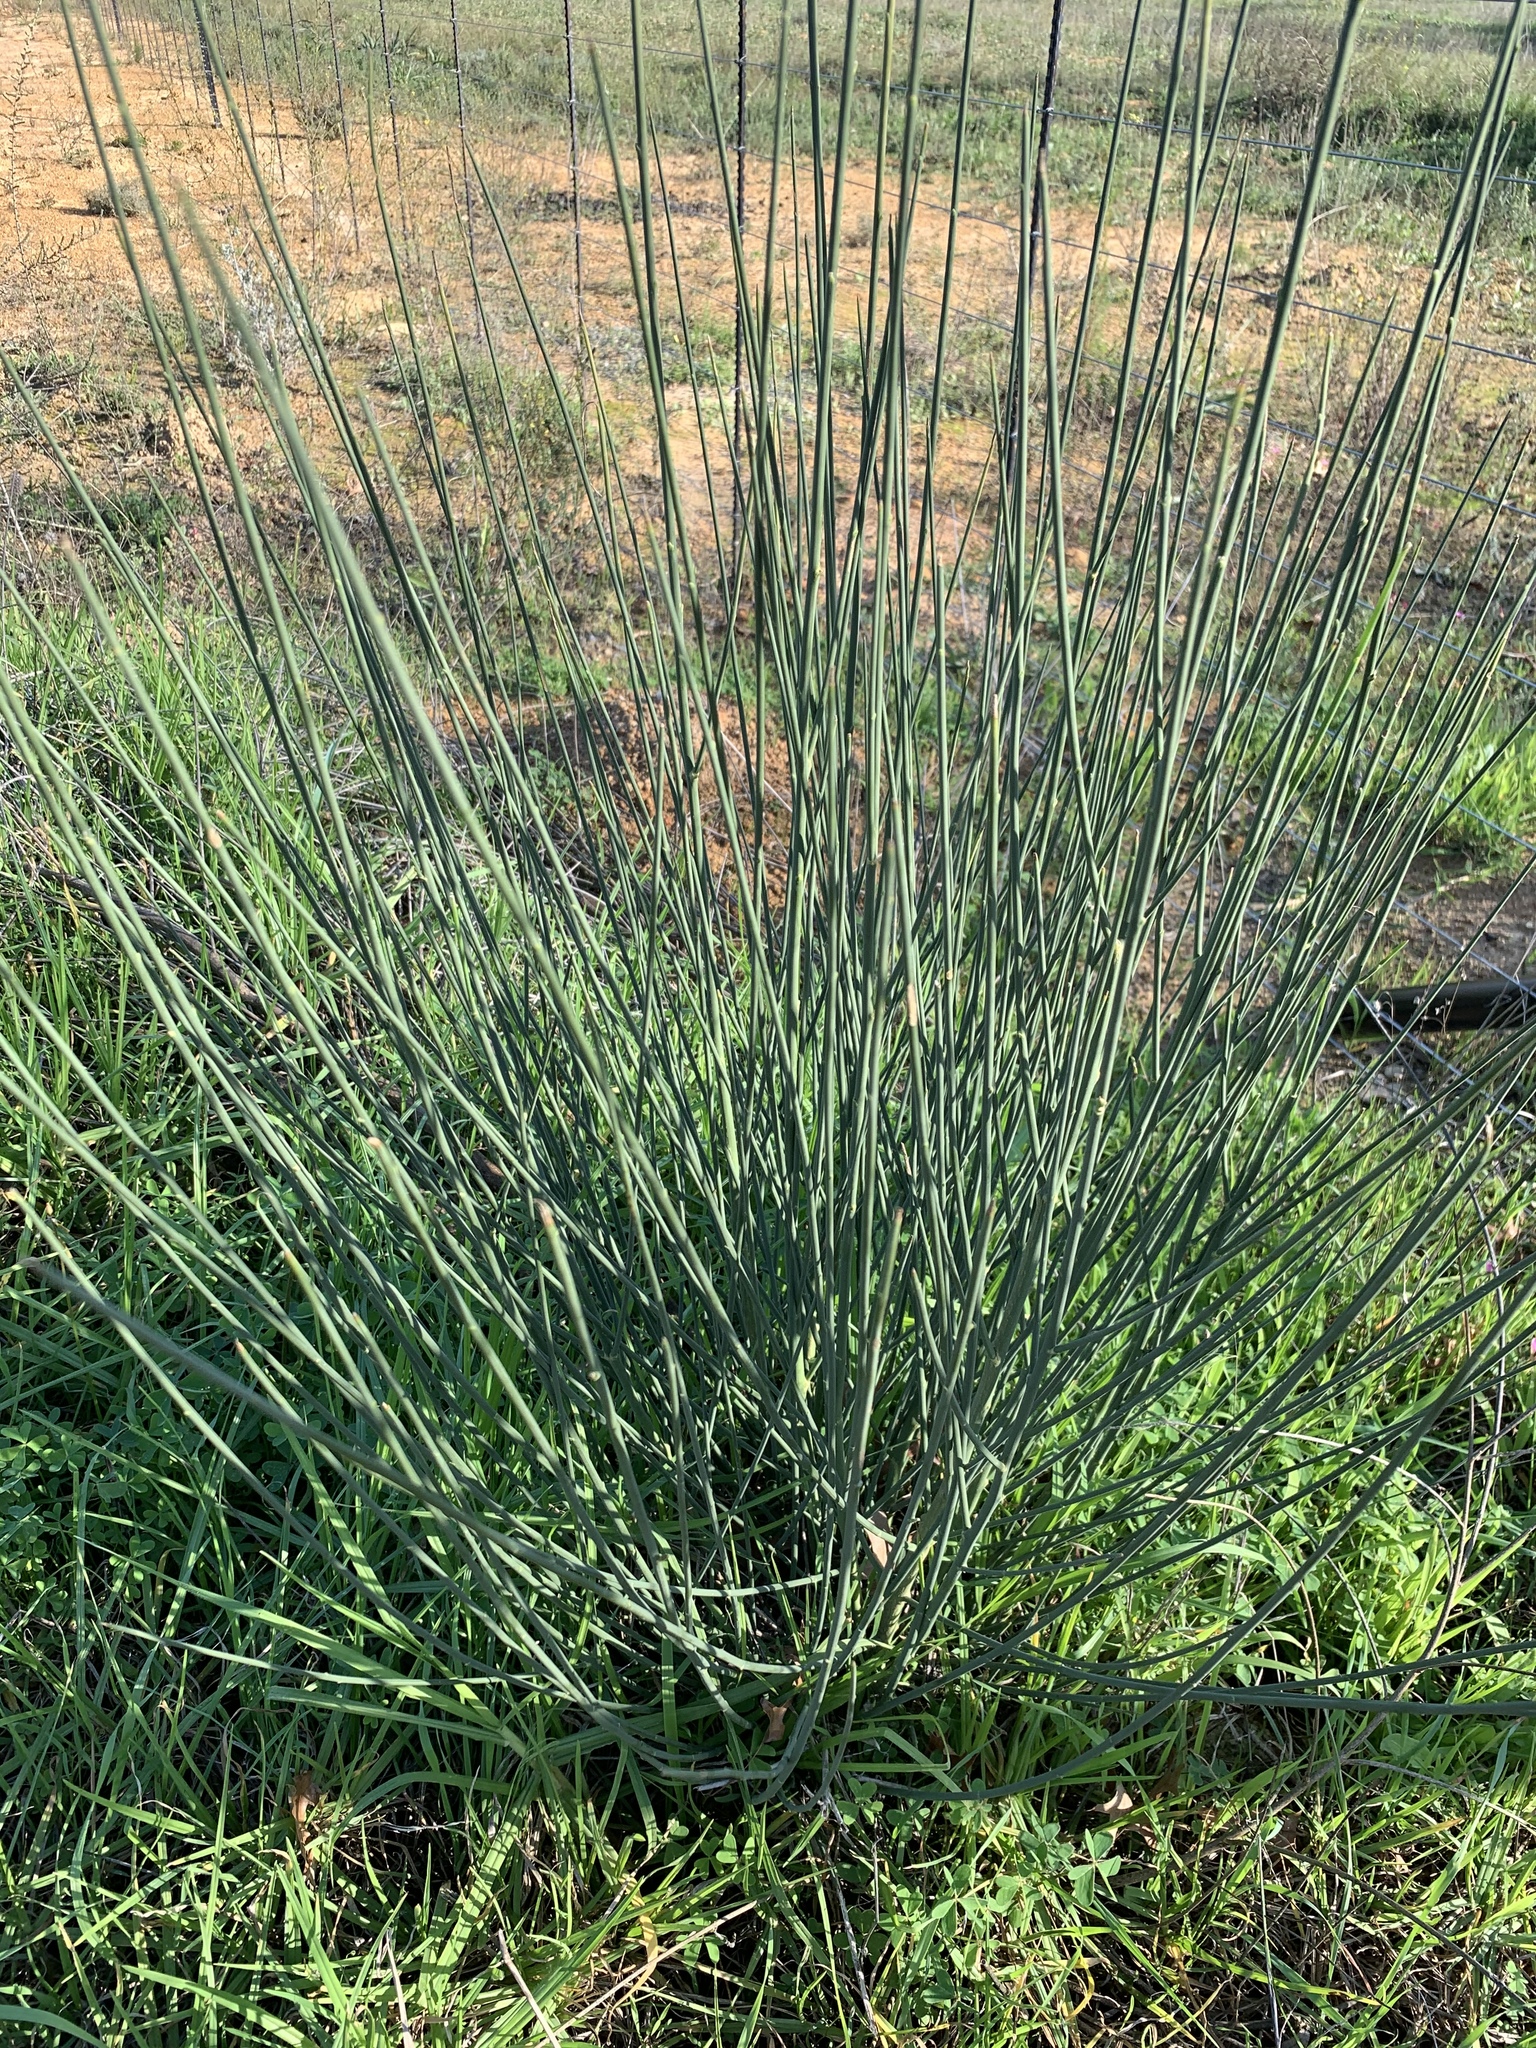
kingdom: Plantae
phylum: Tracheophyta
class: Magnoliopsida
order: Fabales
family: Fabaceae
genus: Spartium
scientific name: Spartium junceum
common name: Spanish broom
